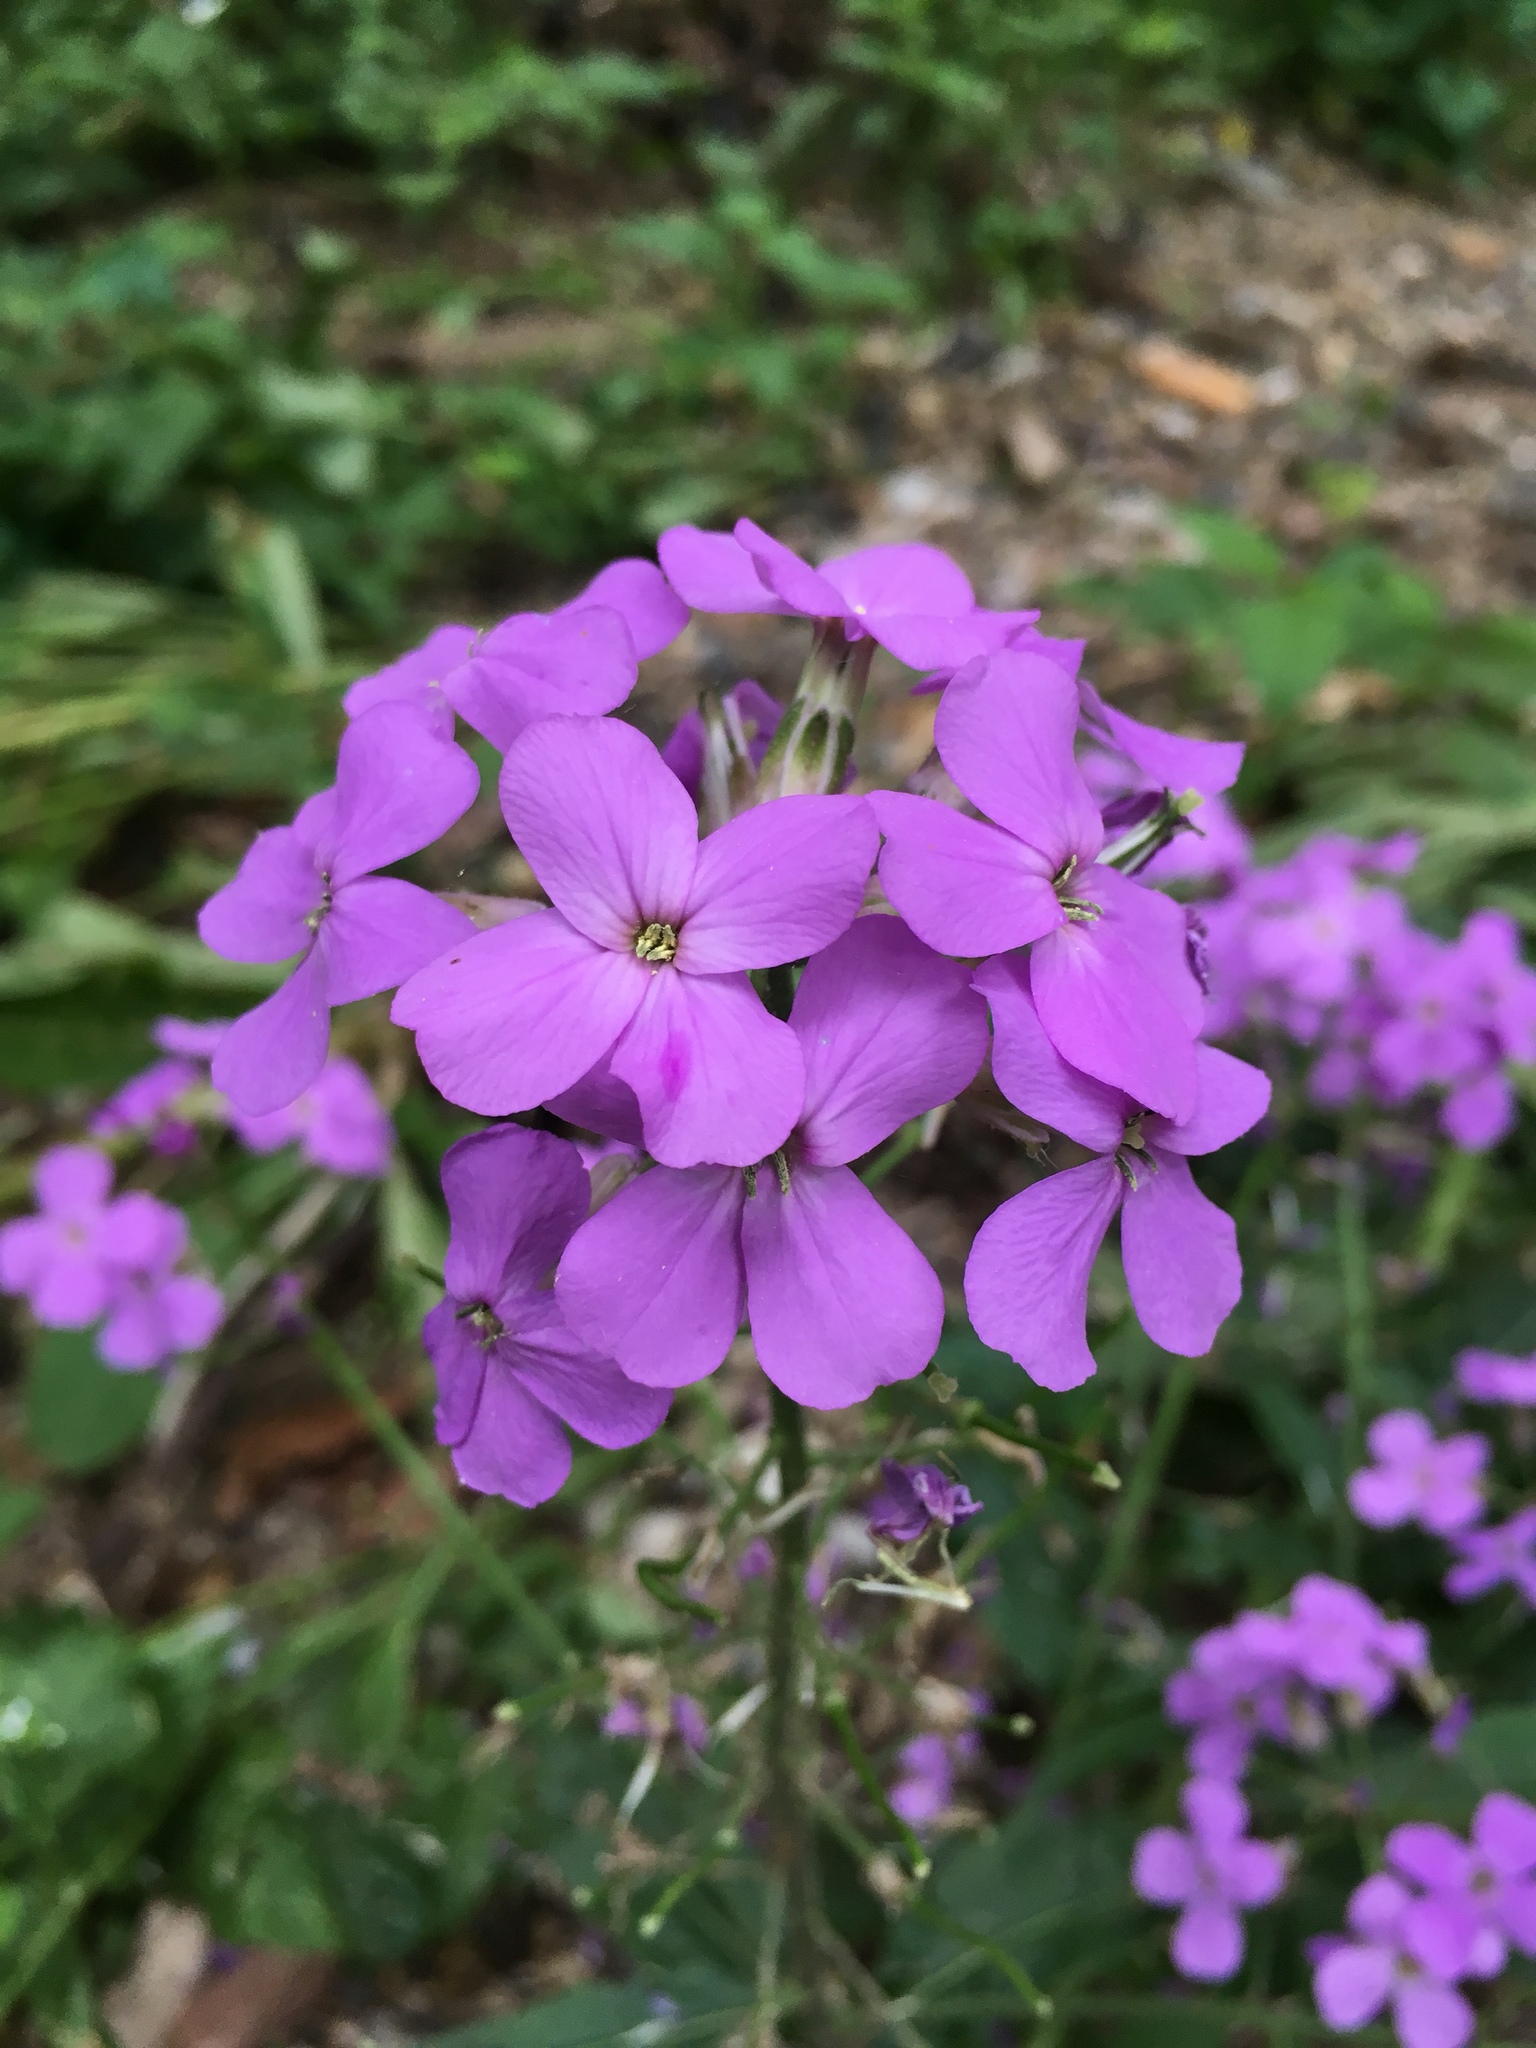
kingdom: Plantae
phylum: Tracheophyta
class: Magnoliopsida
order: Brassicales
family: Brassicaceae
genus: Hesperis
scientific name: Hesperis matronalis
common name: Dame's-violet
